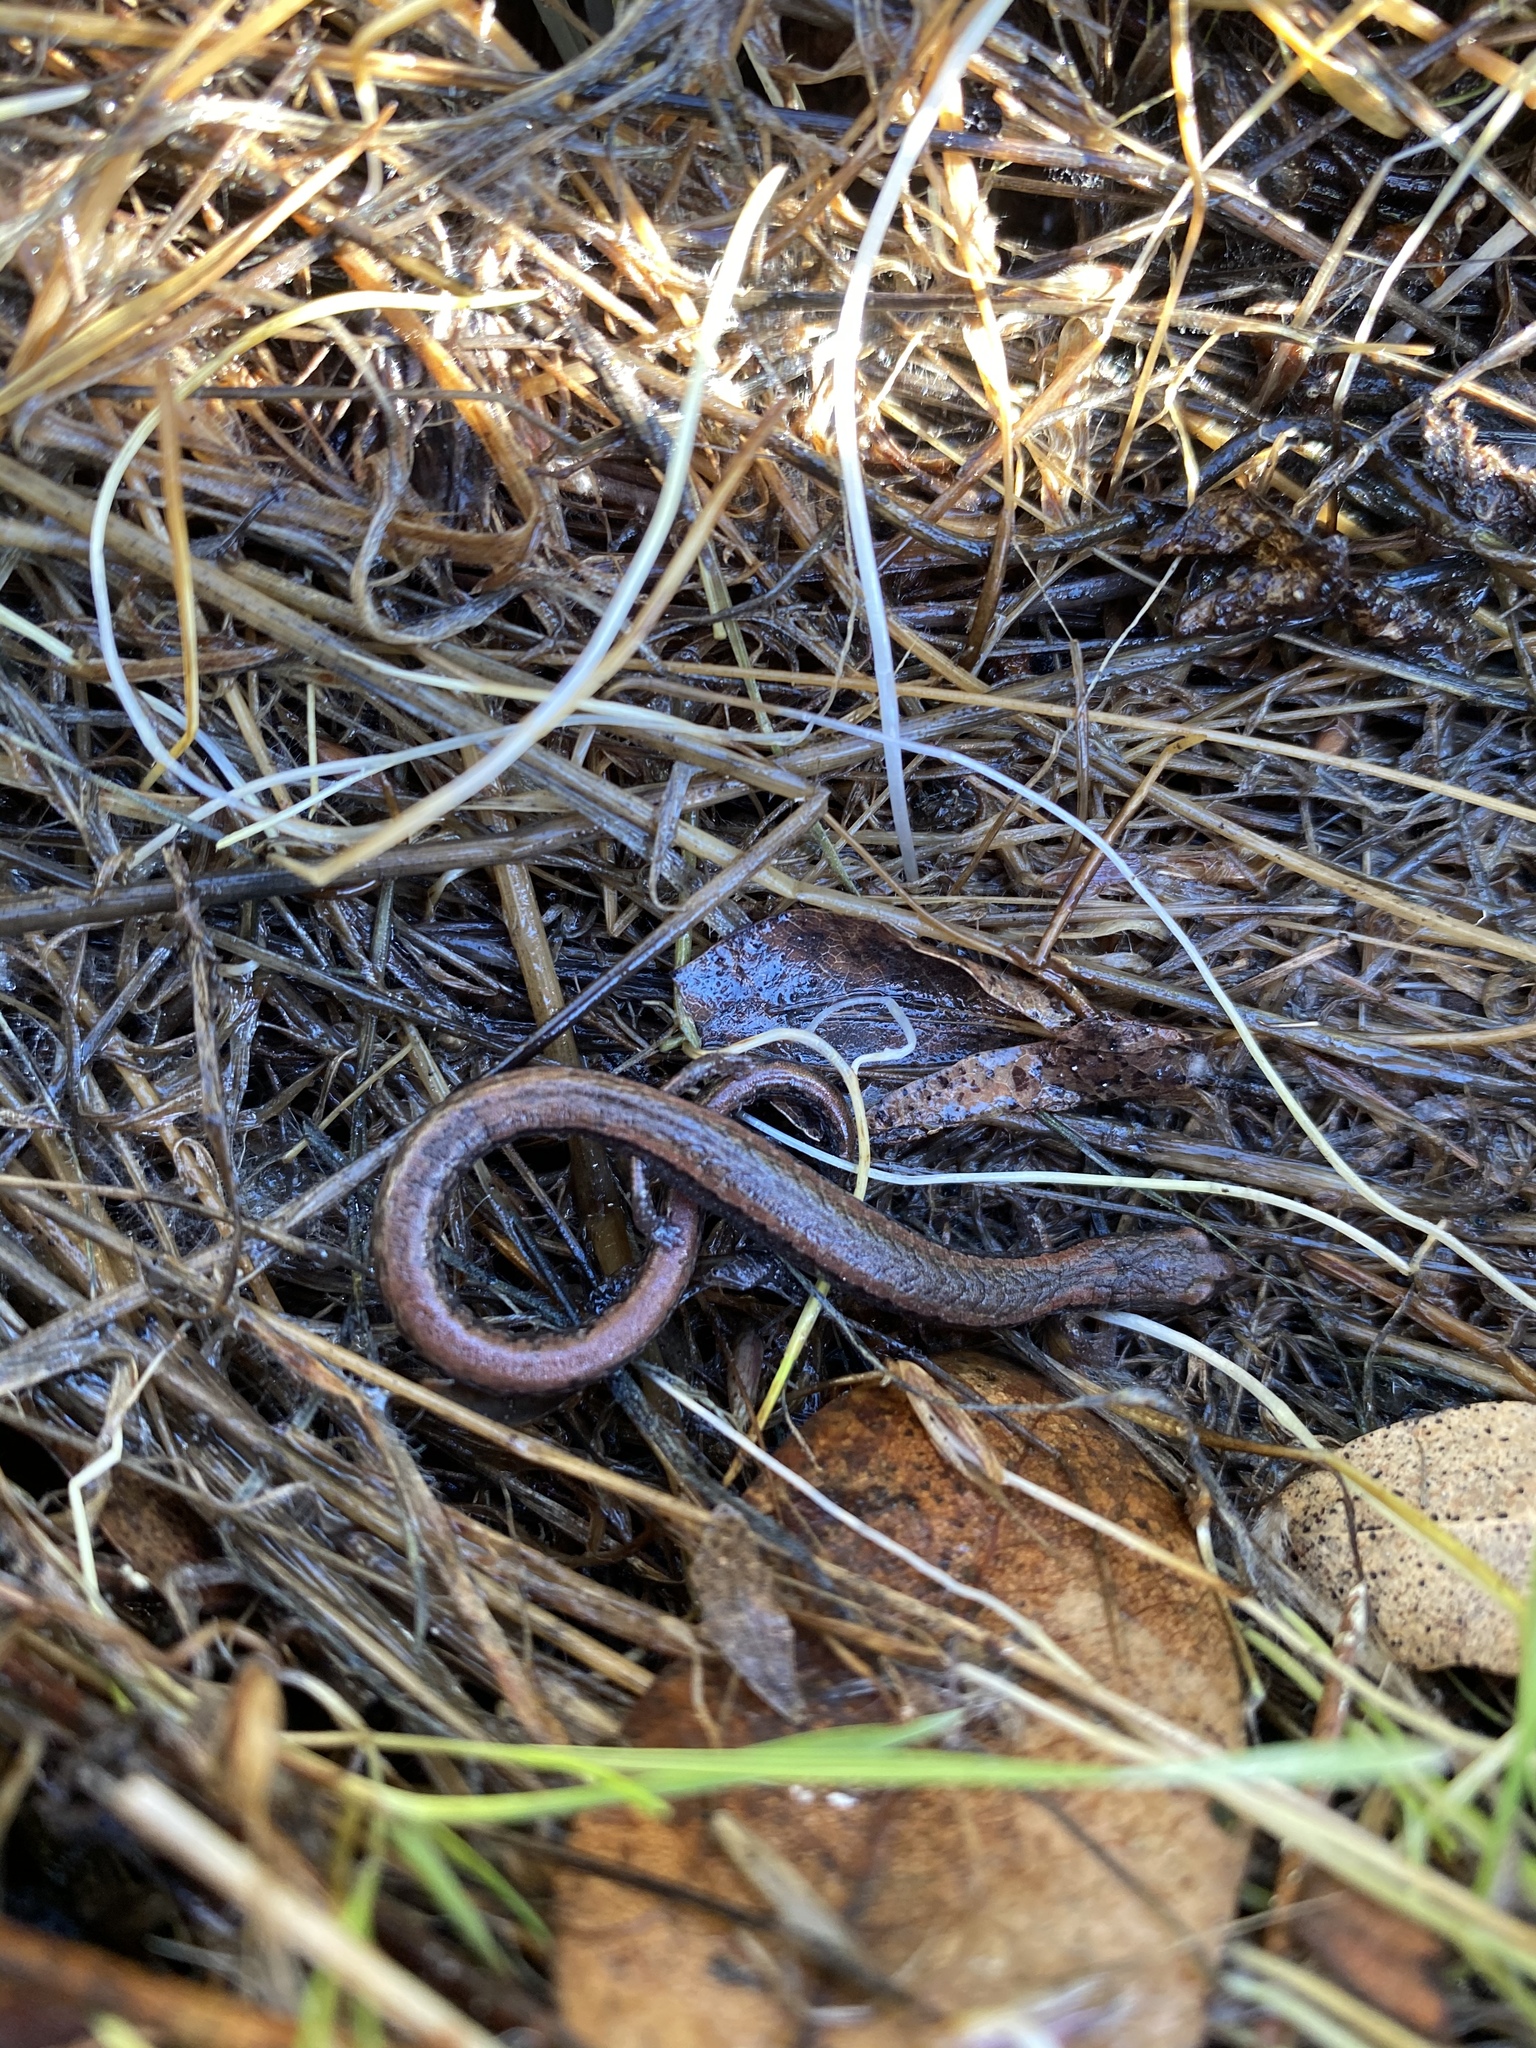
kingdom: Animalia
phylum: Chordata
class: Amphibia
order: Caudata
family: Plethodontidae
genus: Batrachoseps
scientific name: Batrachoseps attenuatus
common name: California slender salamander
